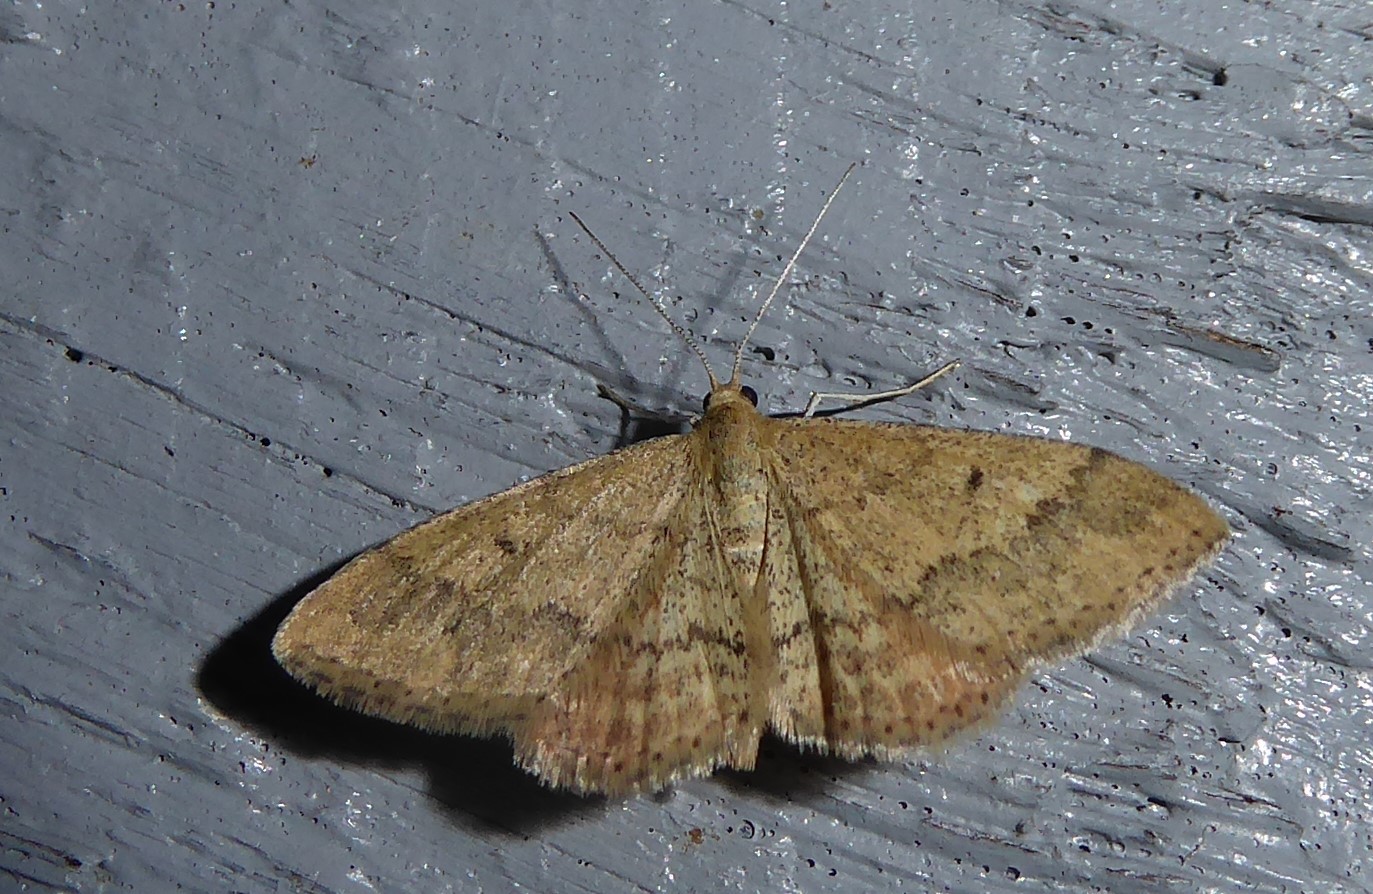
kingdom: Animalia
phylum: Arthropoda
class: Insecta
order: Lepidoptera
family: Geometridae
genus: Scopula
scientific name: Scopula rubraria
